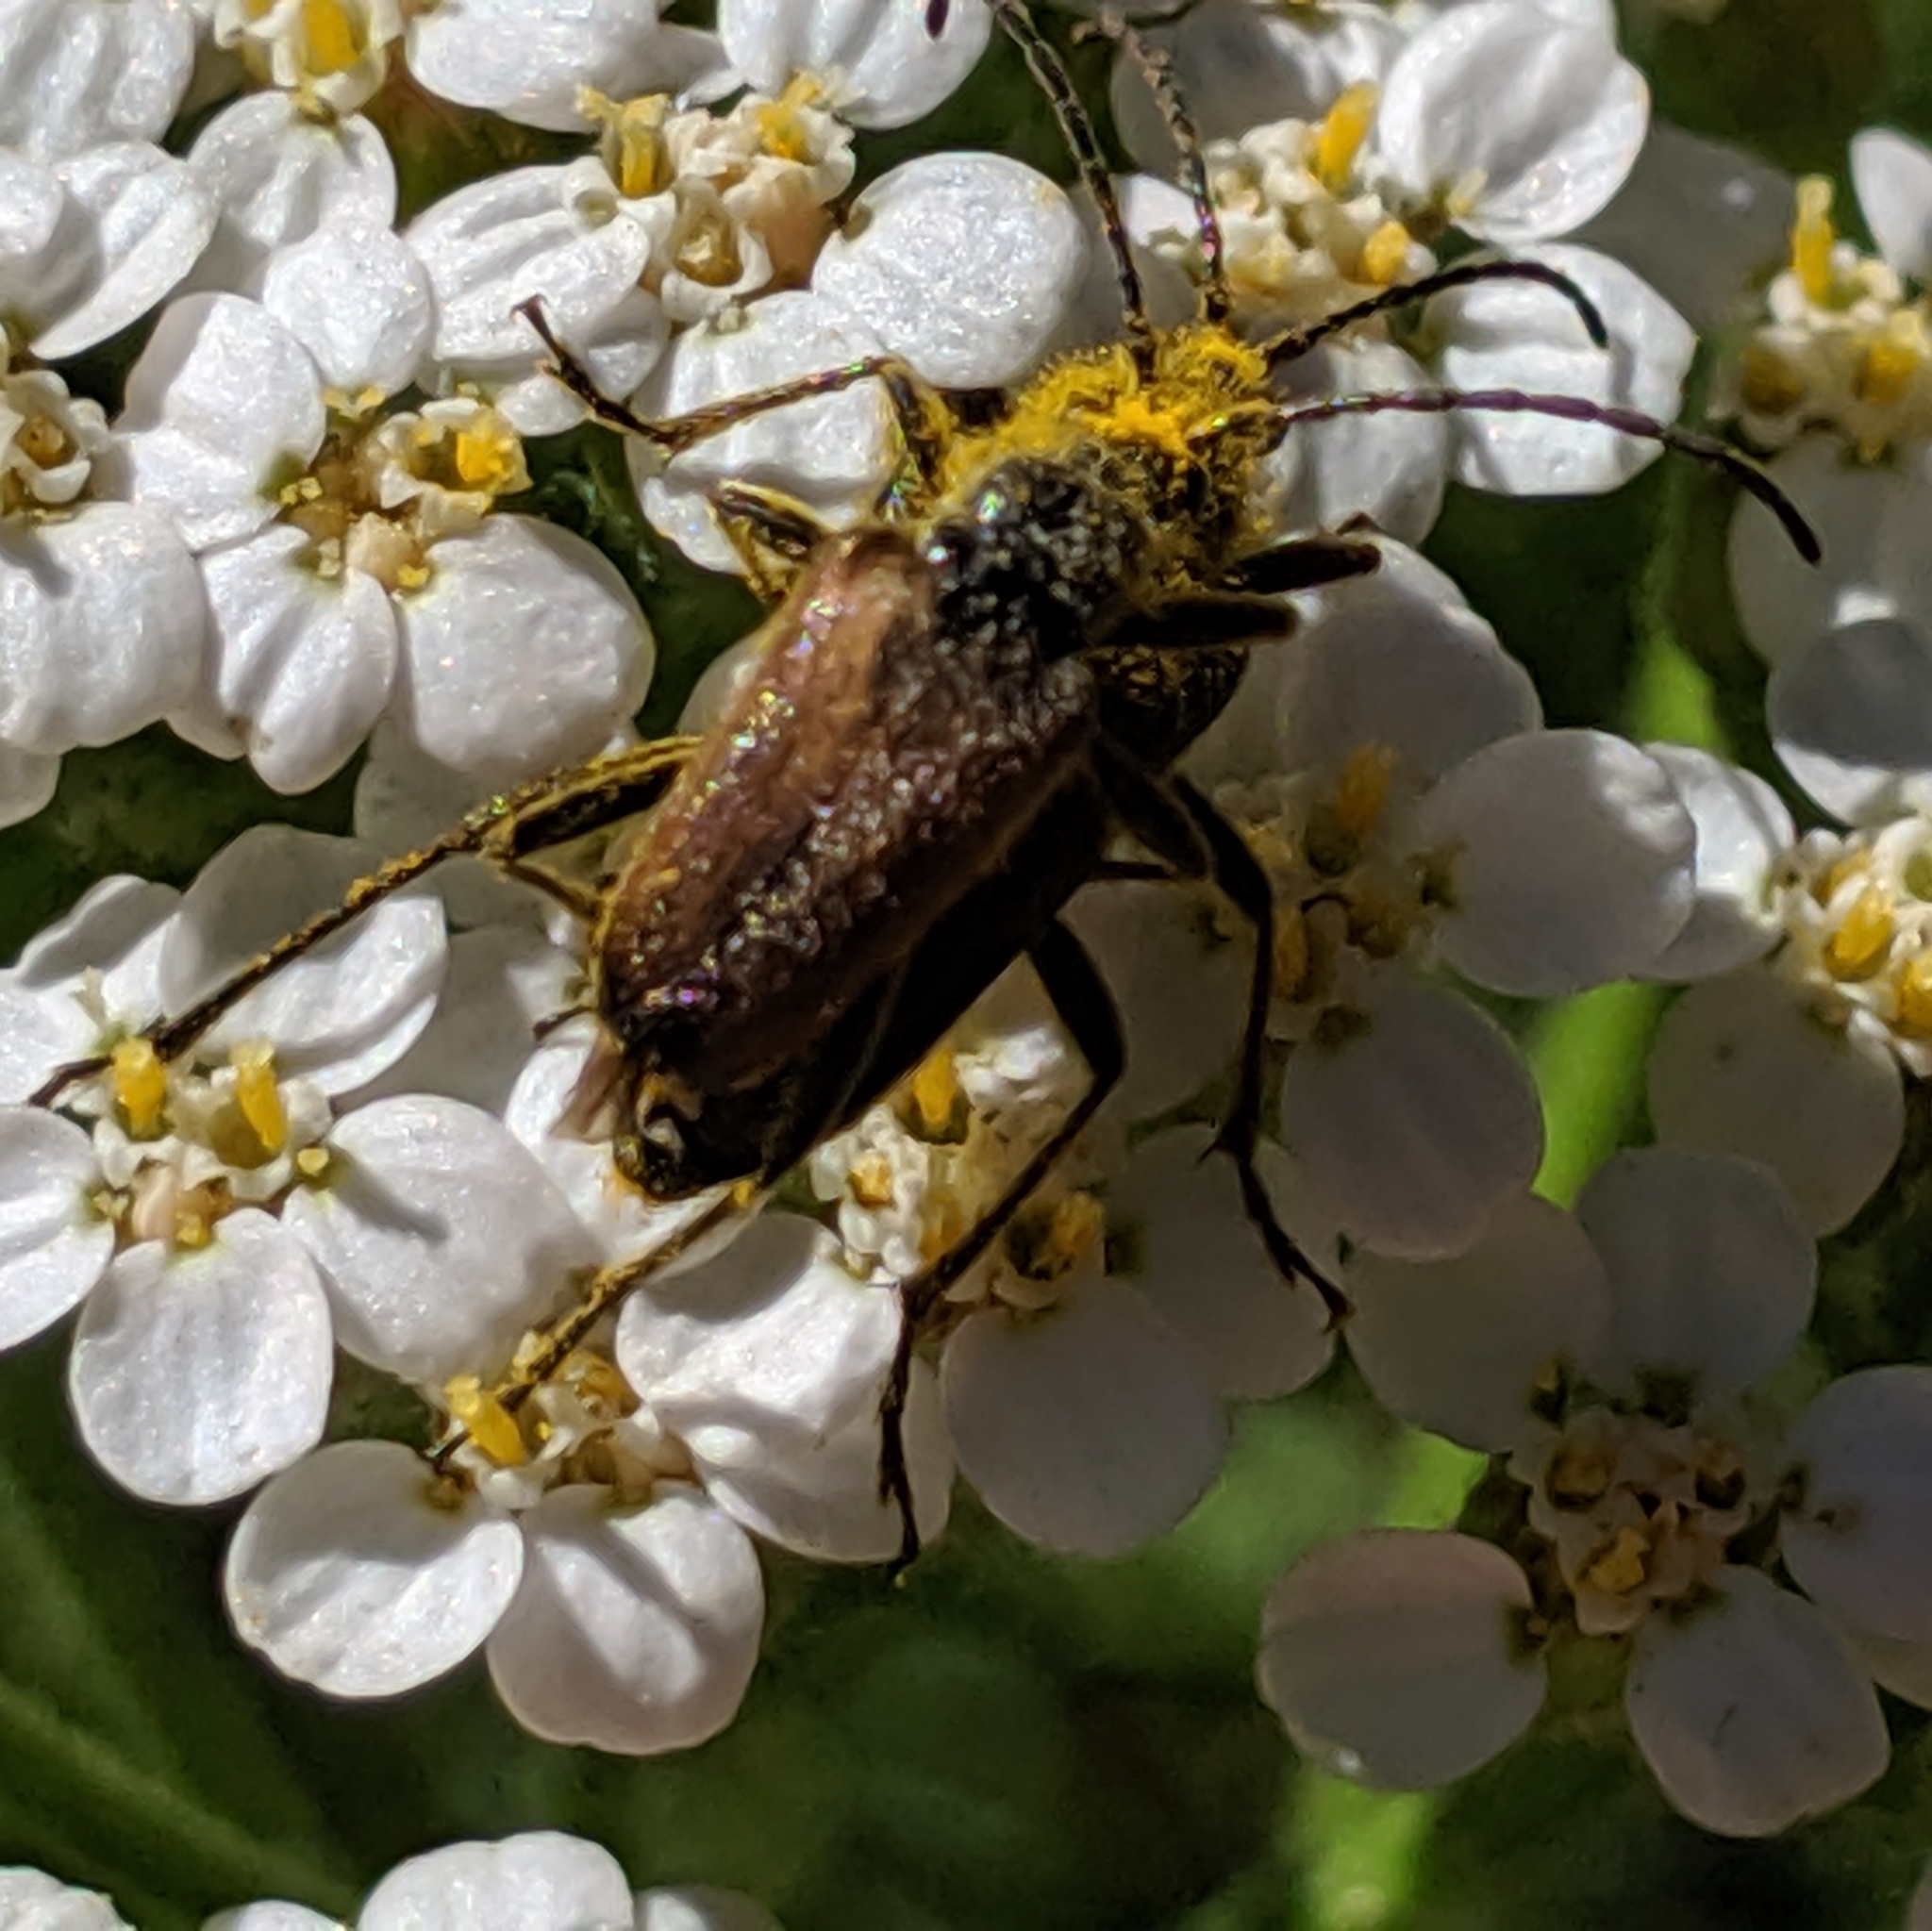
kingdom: Animalia
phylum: Arthropoda
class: Insecta
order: Coleoptera
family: Cerambycidae
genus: Gnathacmaeops
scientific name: Gnathacmaeops pratensis
